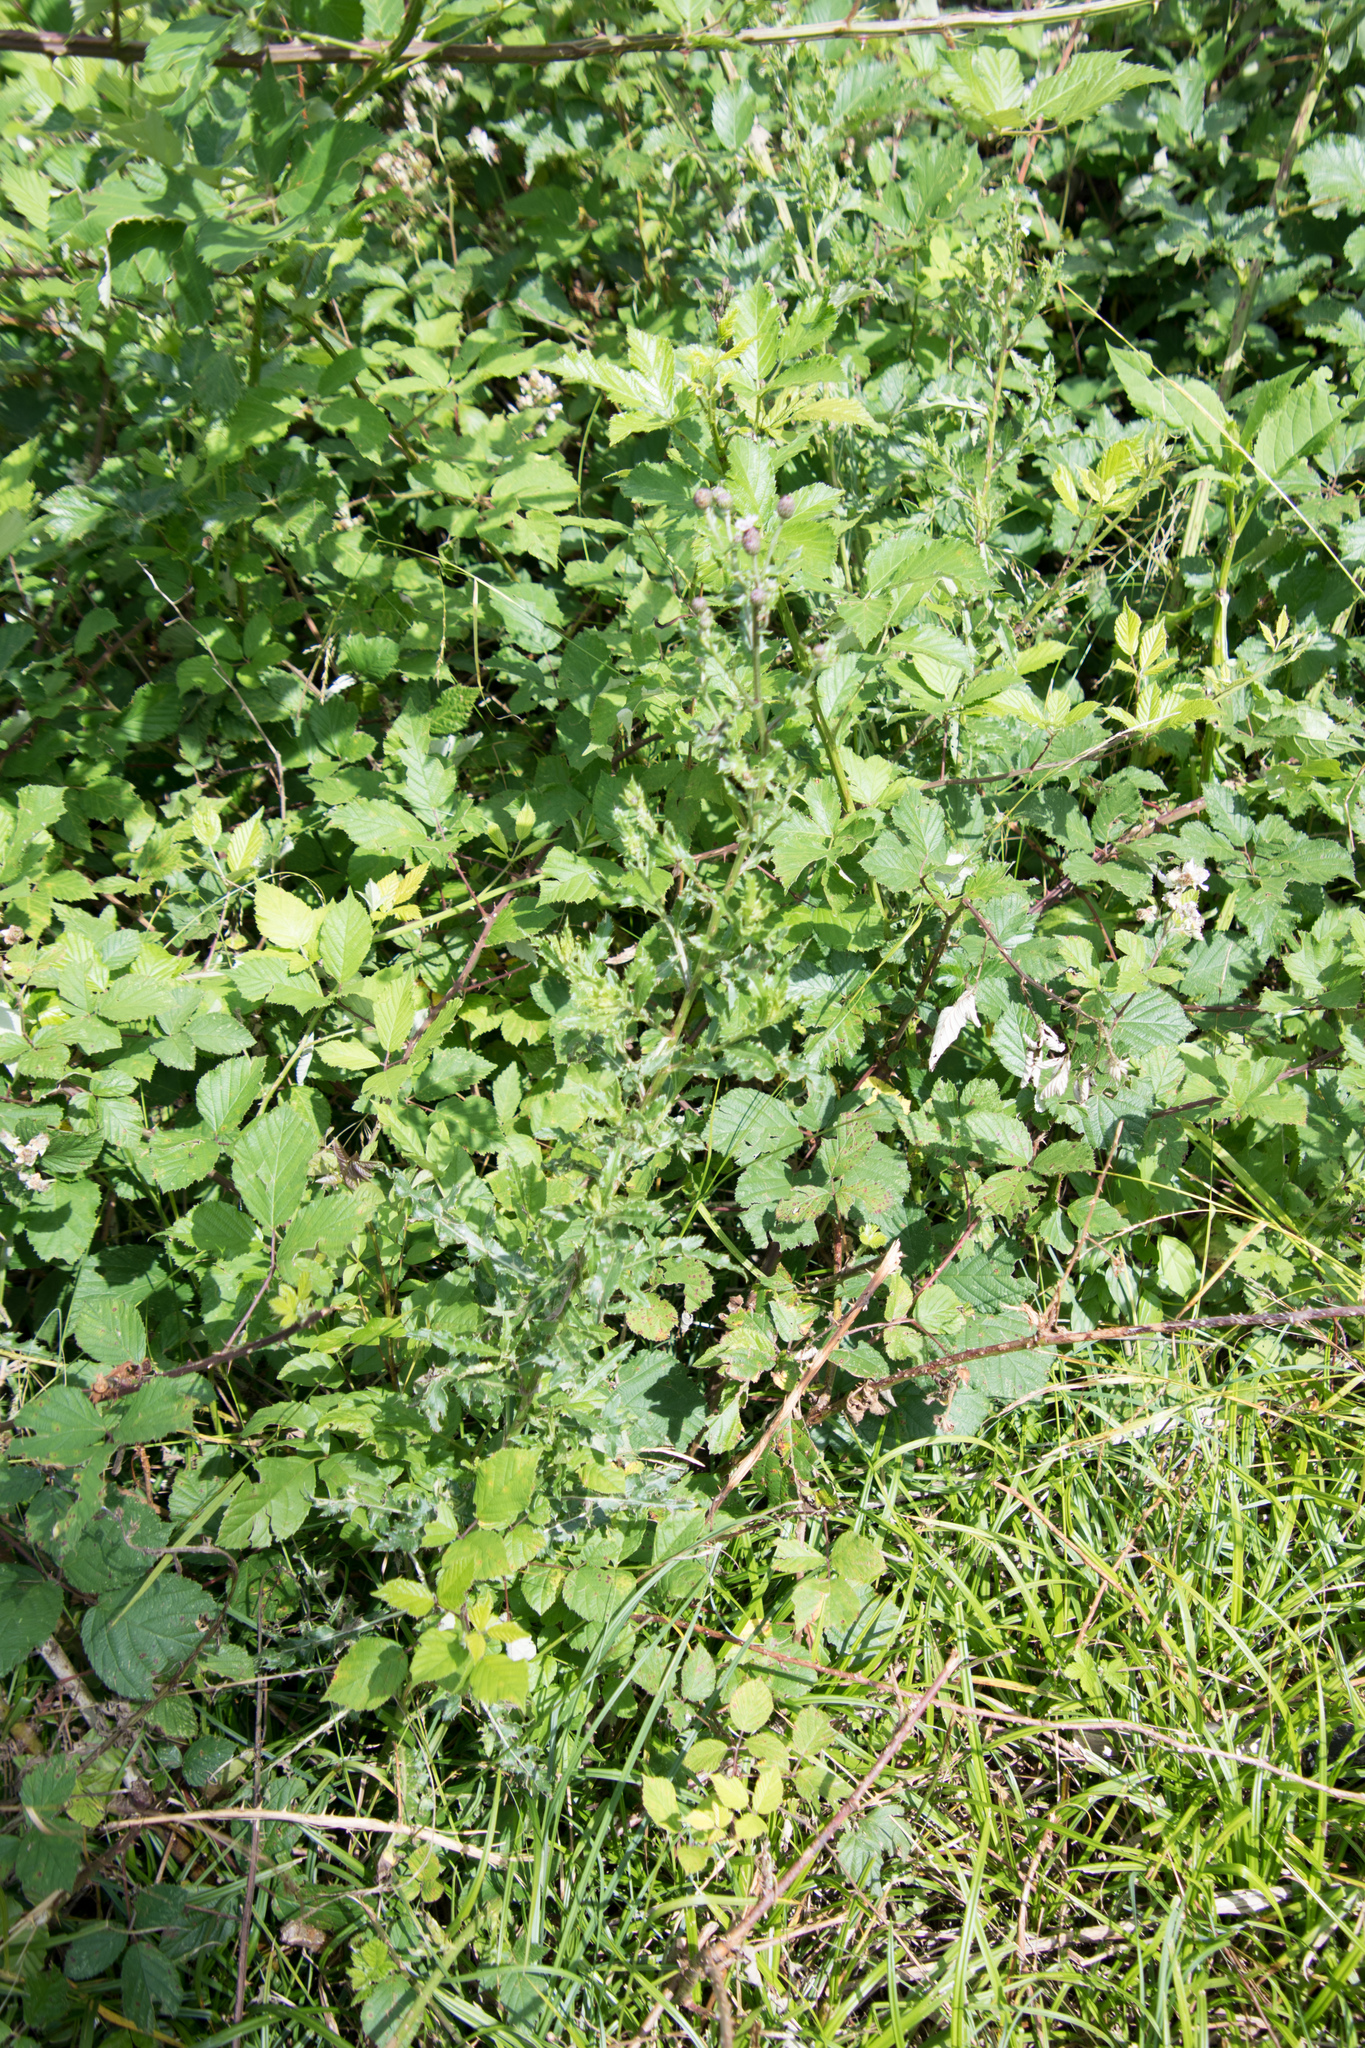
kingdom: Plantae
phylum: Tracheophyta
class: Magnoliopsida
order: Asterales
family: Asteraceae
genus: Cirsium
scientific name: Cirsium arvense
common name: Creeping thistle
